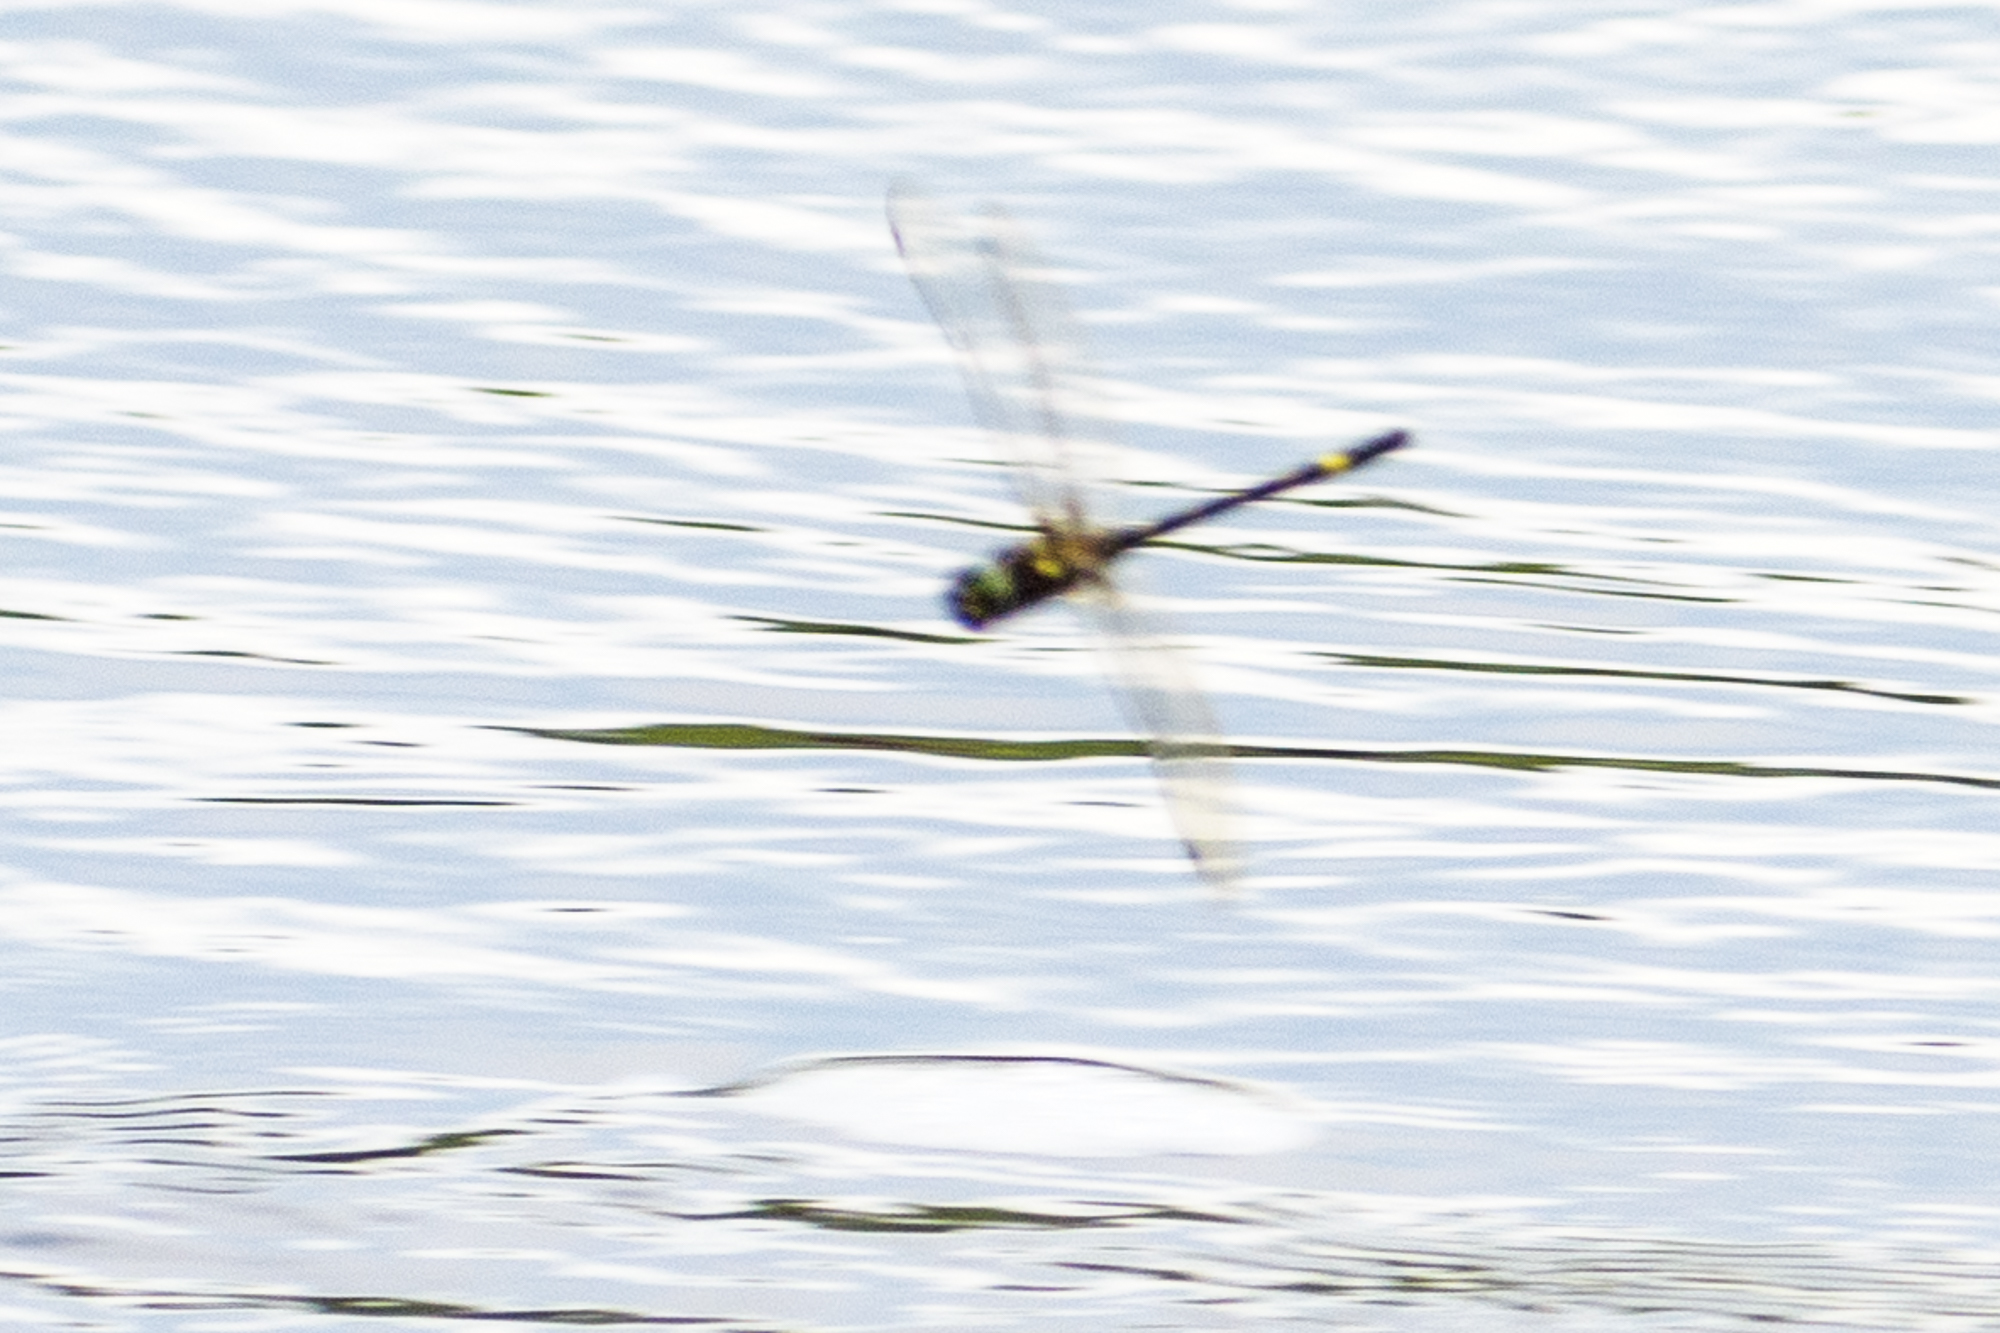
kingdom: Animalia
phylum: Arthropoda
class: Insecta
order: Odonata
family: Macromiidae
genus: Macromia
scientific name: Macromia illinoiensis
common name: Swift river cruiser
